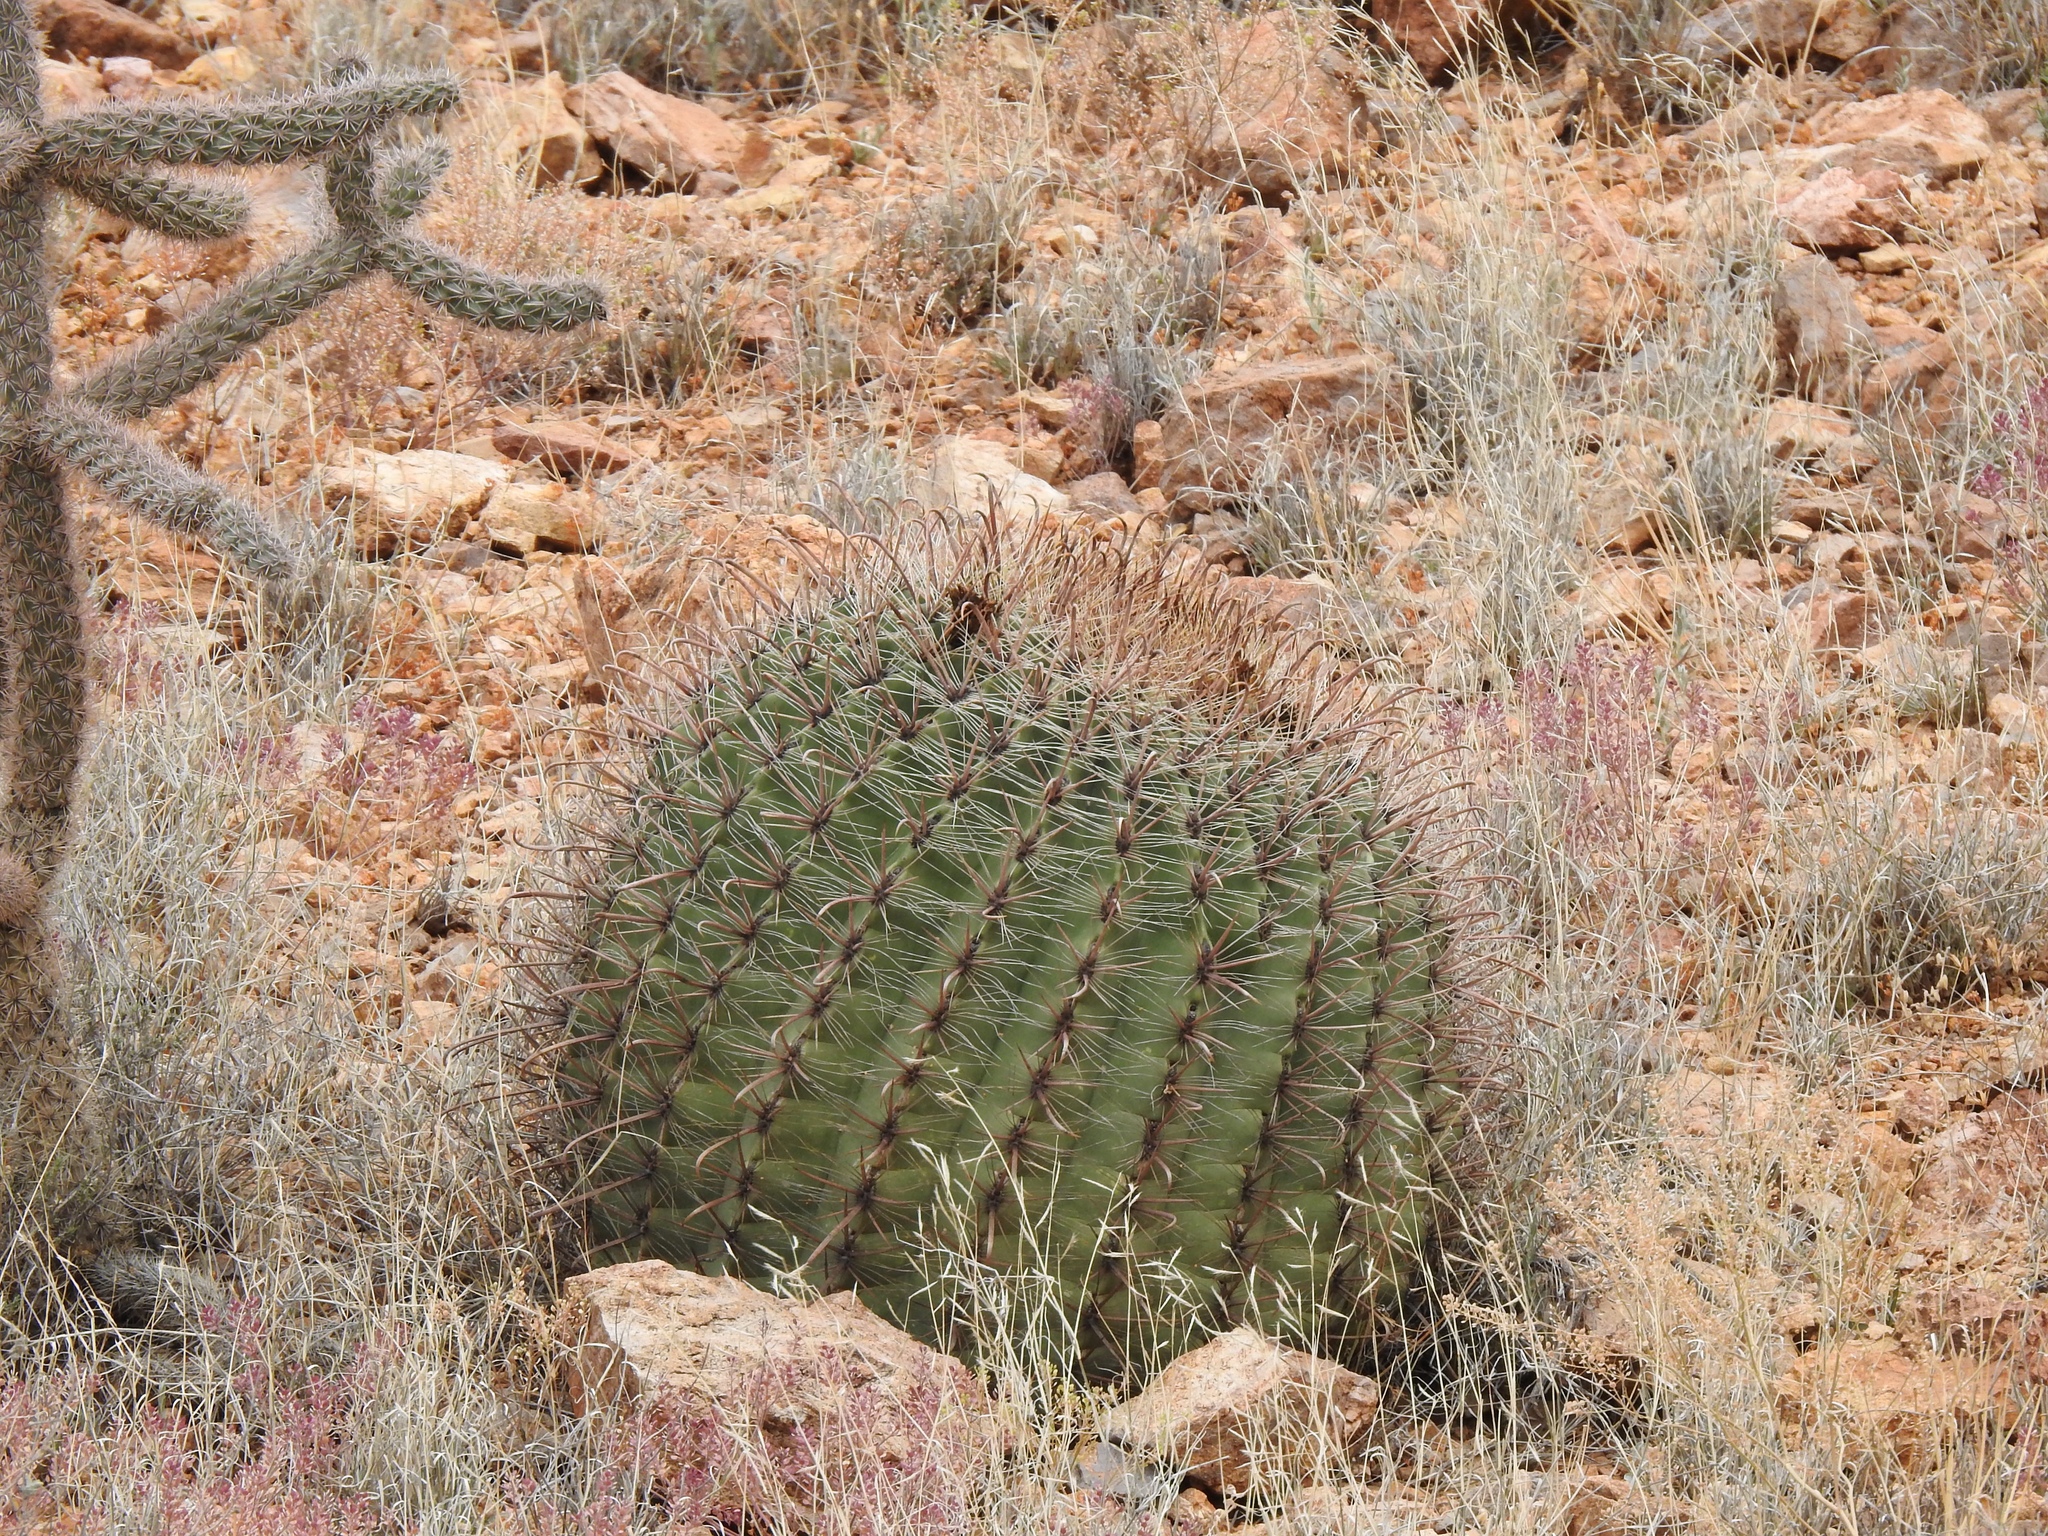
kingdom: Plantae
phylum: Tracheophyta
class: Magnoliopsida
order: Caryophyllales
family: Cactaceae
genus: Ferocactus
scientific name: Ferocactus wislizeni
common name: Candy barrel cactus
